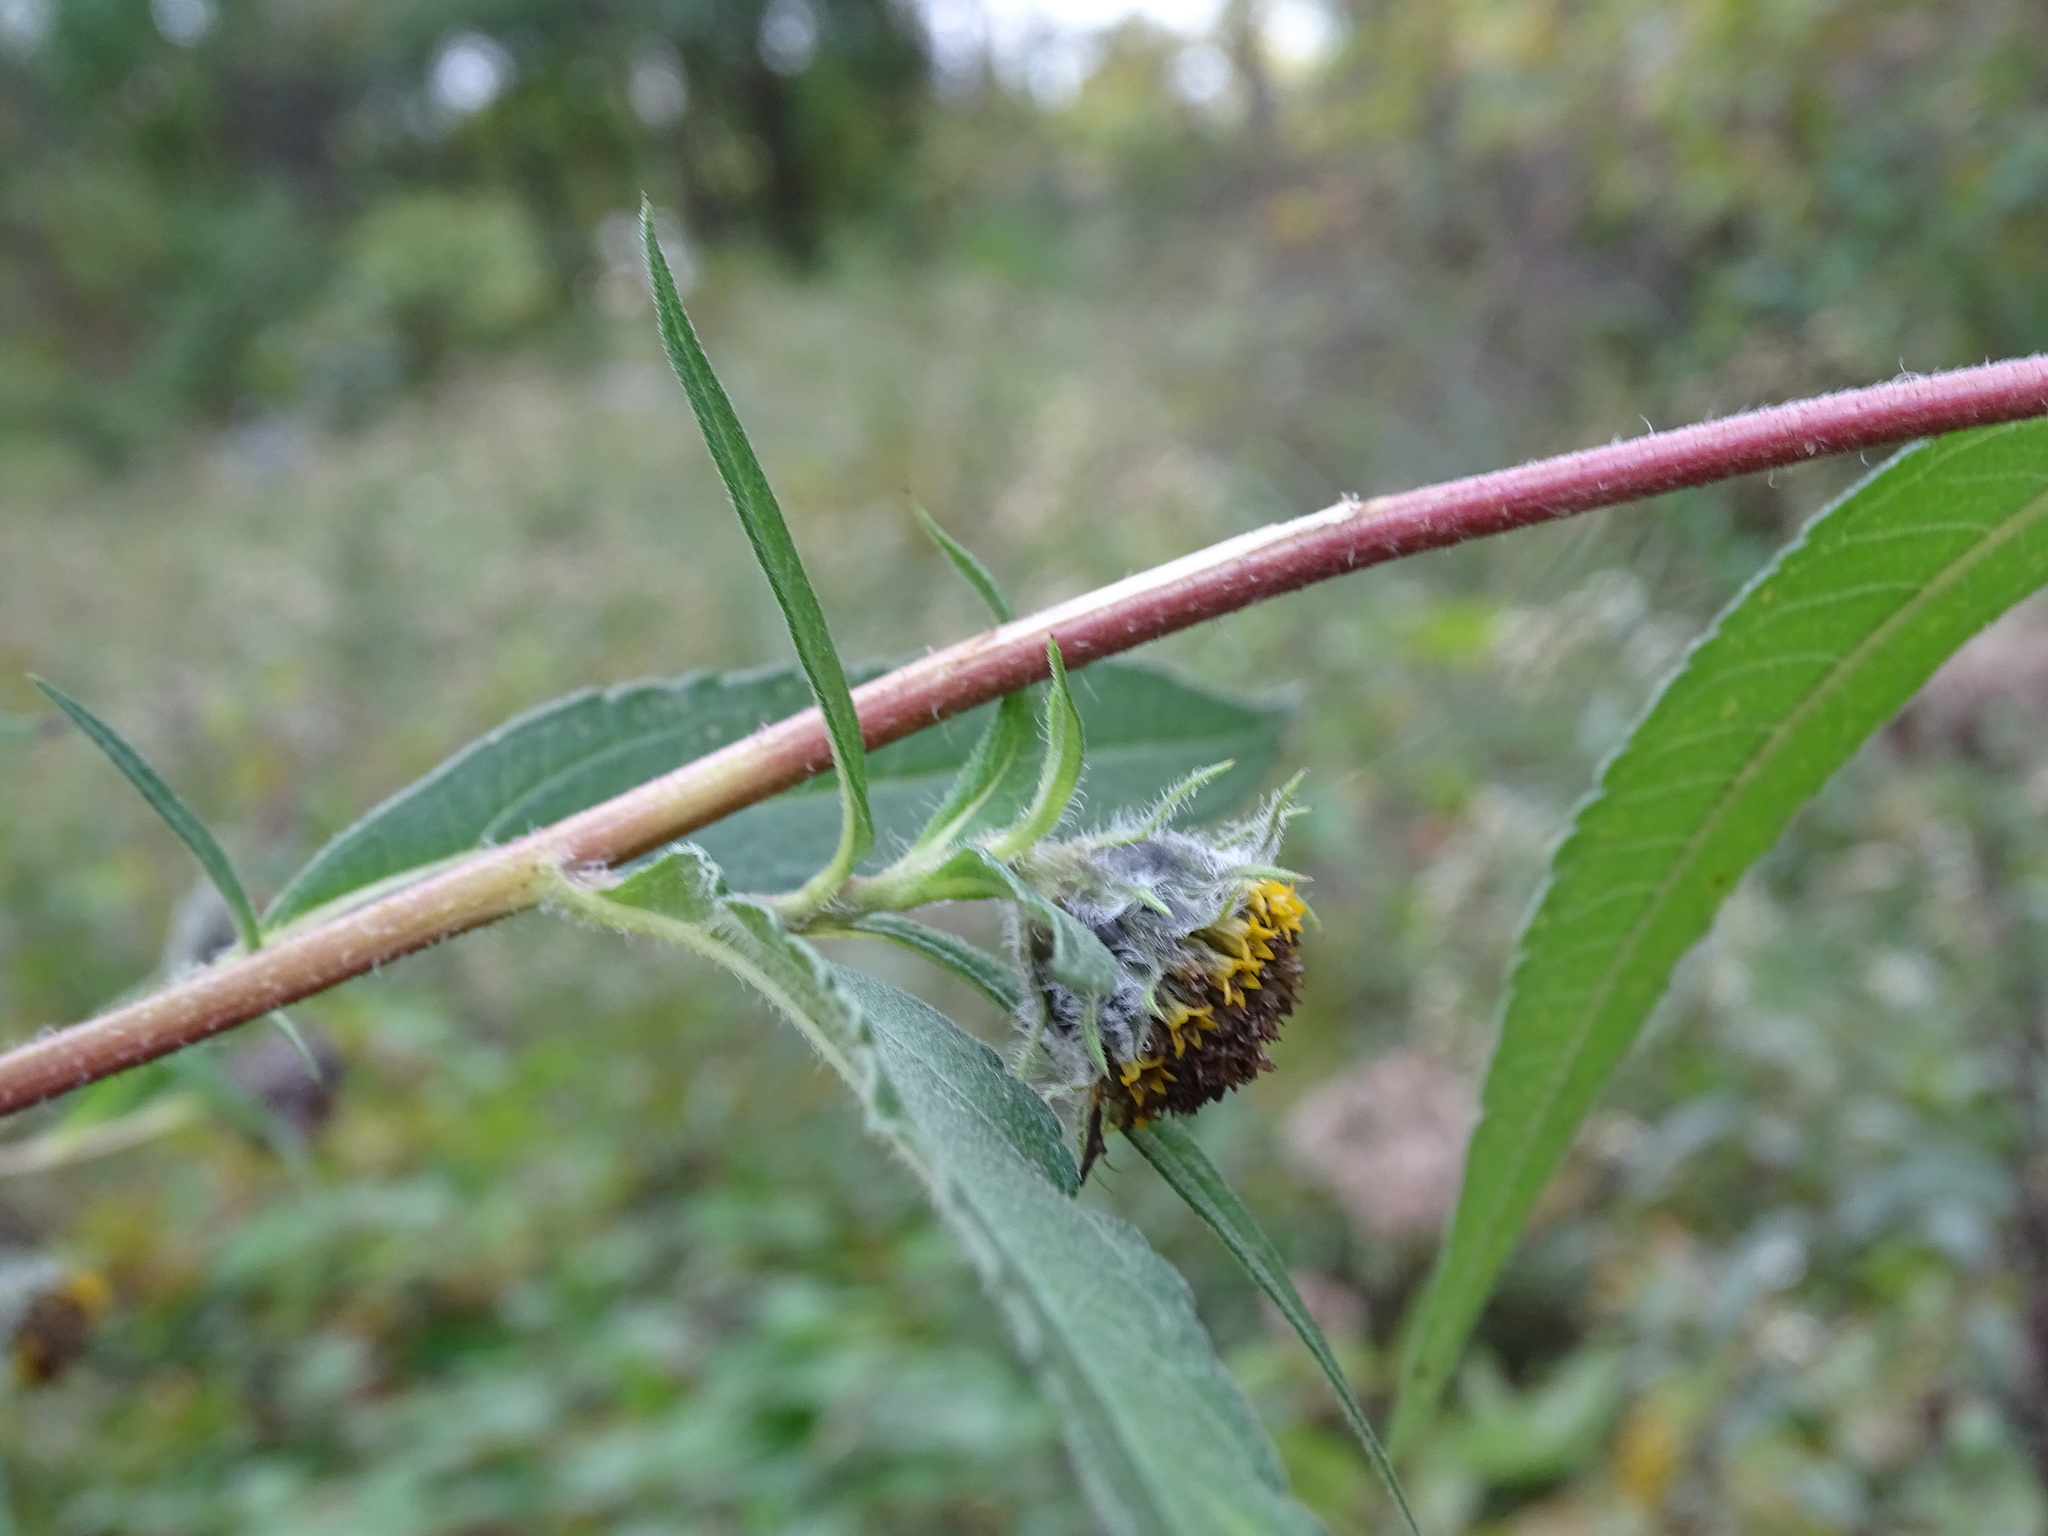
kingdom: Plantae
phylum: Tracheophyta
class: Magnoliopsida
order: Asterales
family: Asteraceae
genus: Helianthus
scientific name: Helianthus giganteus
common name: Giant sunflower
